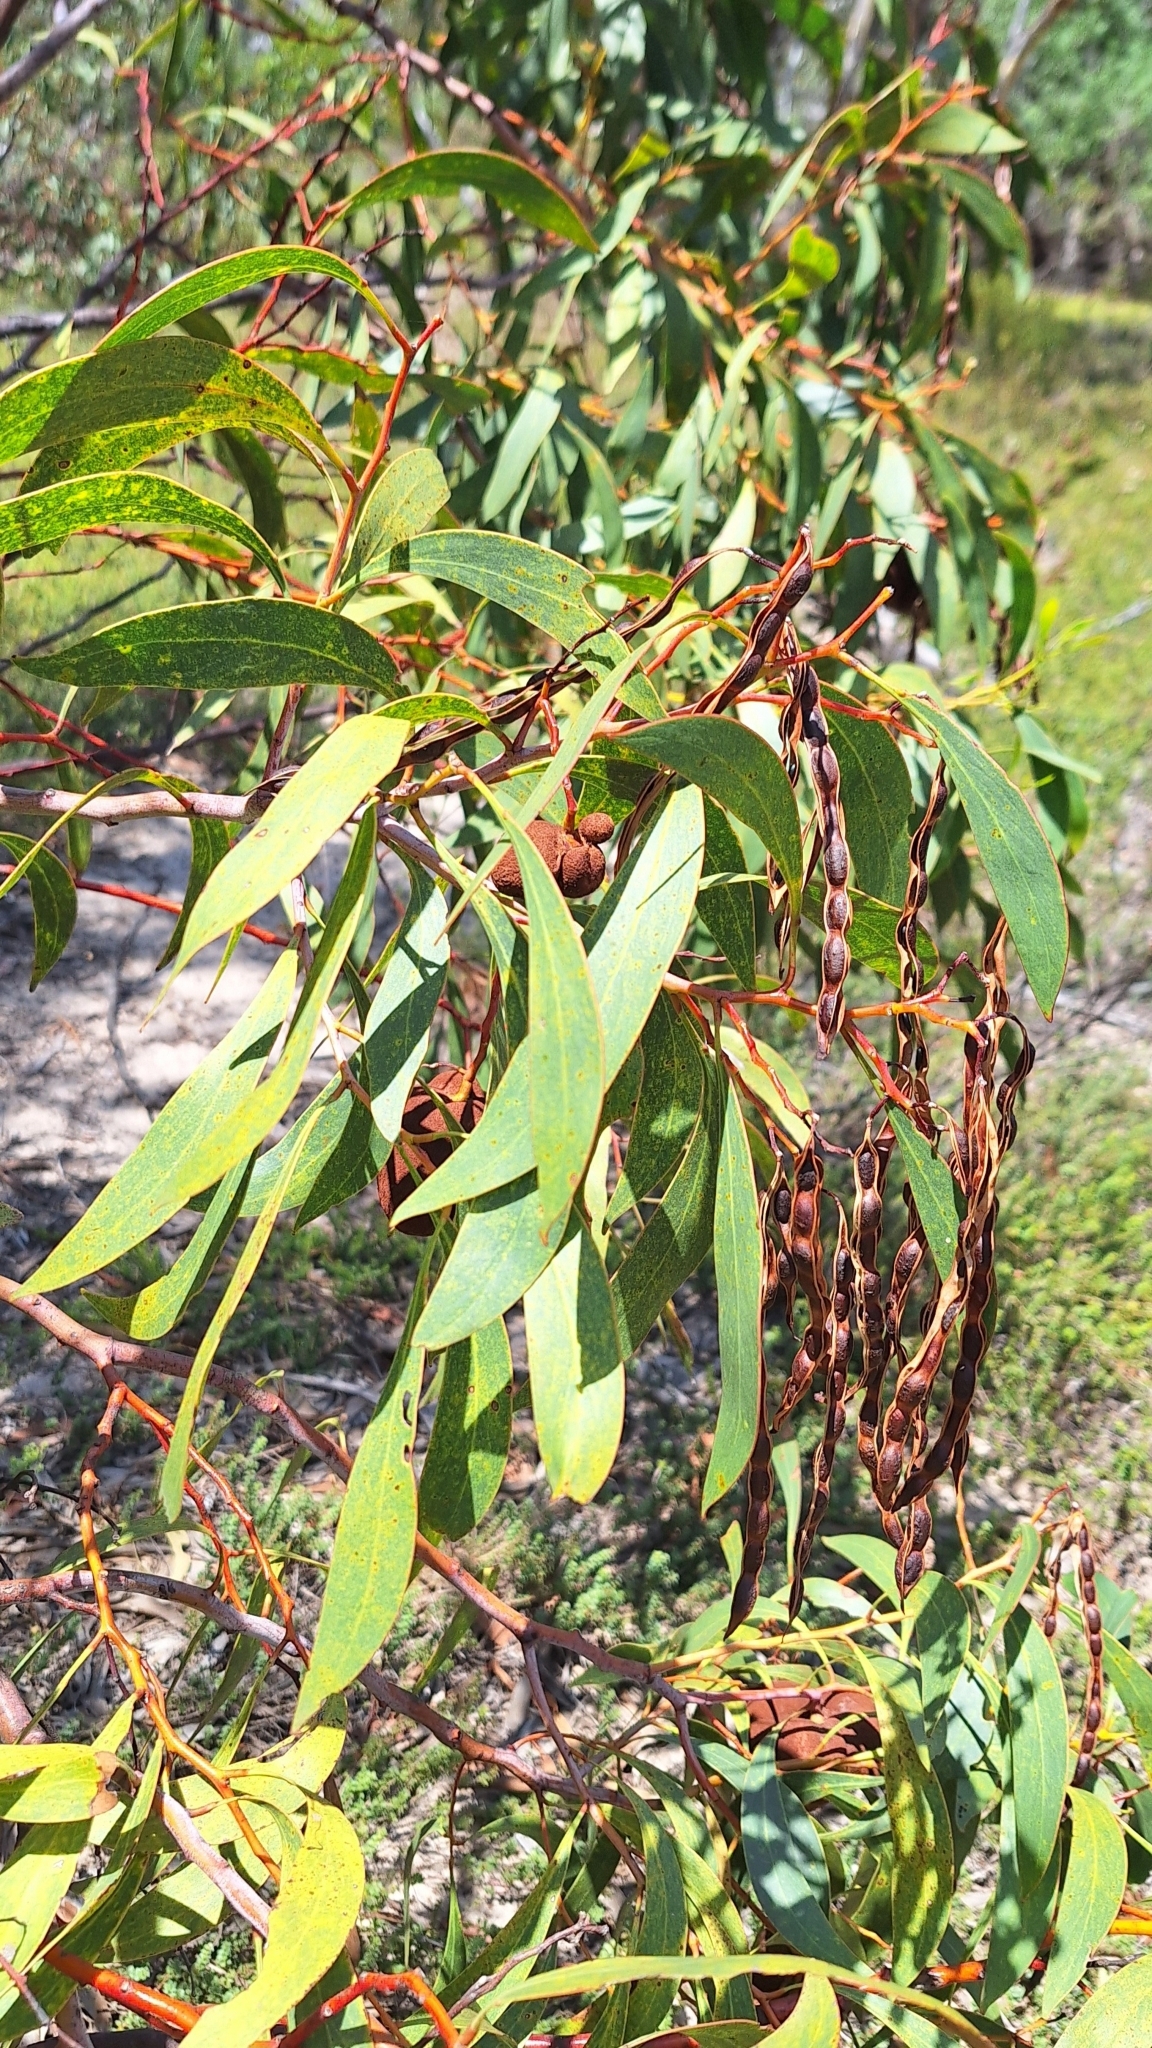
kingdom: Plantae
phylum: Tracheophyta
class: Magnoliopsida
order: Fabales
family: Fabaceae
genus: Acacia
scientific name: Acacia pycnantha
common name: Golden wattle
